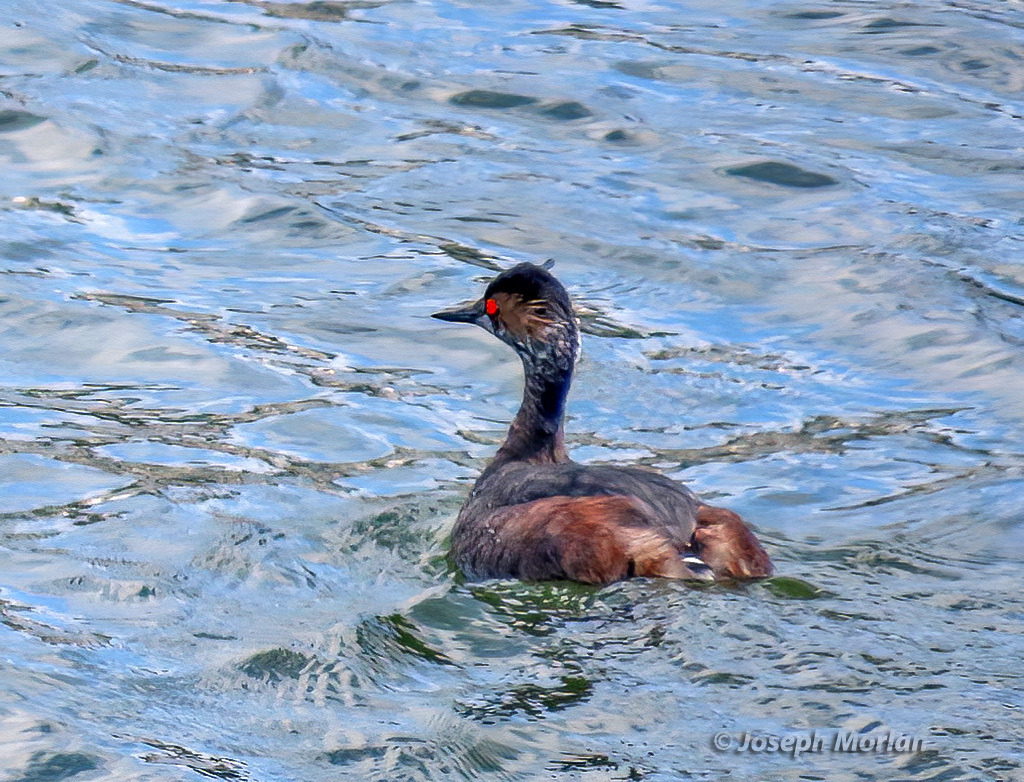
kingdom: Animalia
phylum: Chordata
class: Aves
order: Podicipediformes
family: Podicipedidae
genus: Podiceps
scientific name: Podiceps nigricollis
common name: Black-necked grebe
